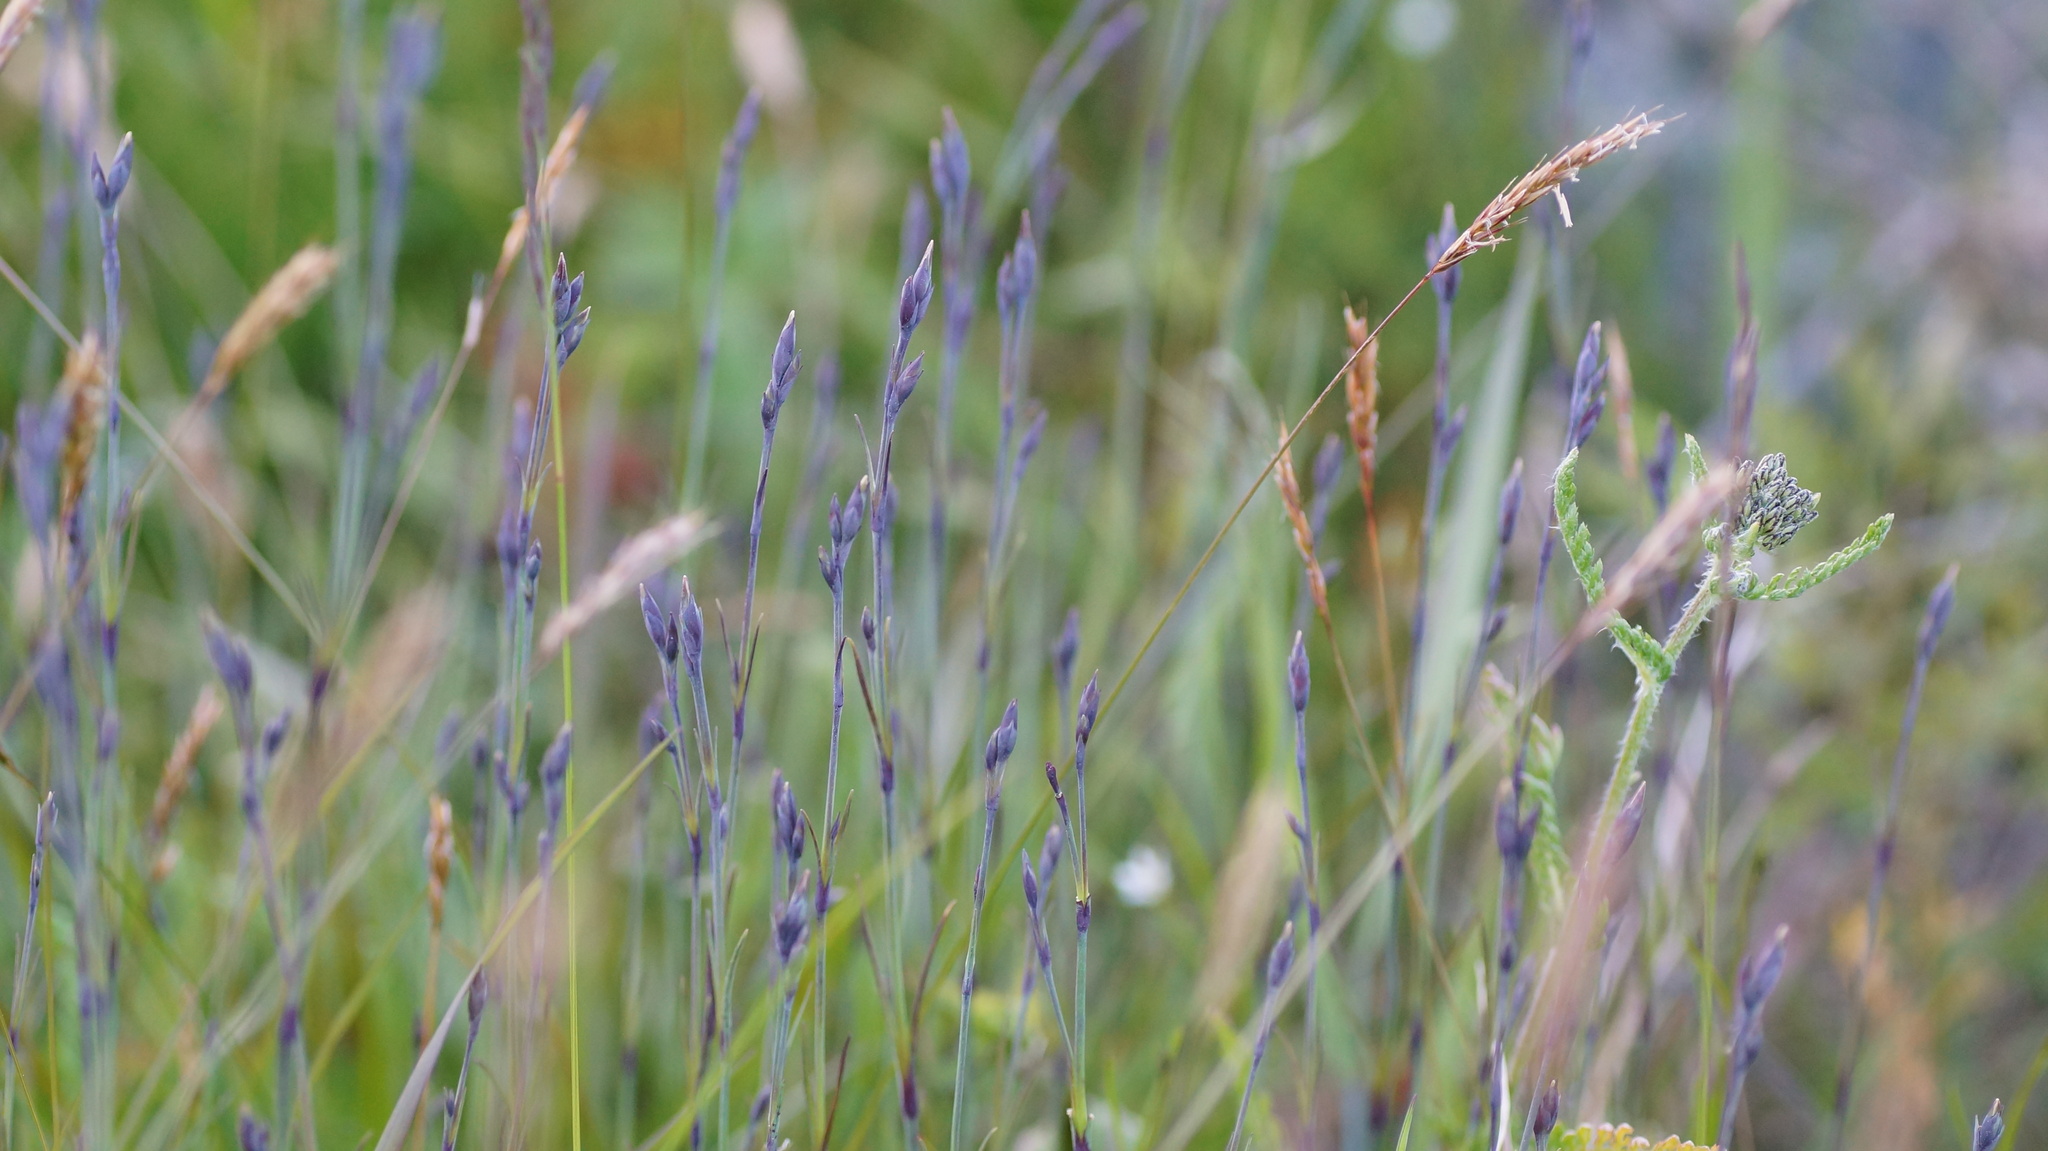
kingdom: Plantae
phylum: Tracheophyta
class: Magnoliopsida
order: Caryophyllales
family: Caryophyllaceae
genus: Dianthus
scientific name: Dianthus superbus
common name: Fringed pink
